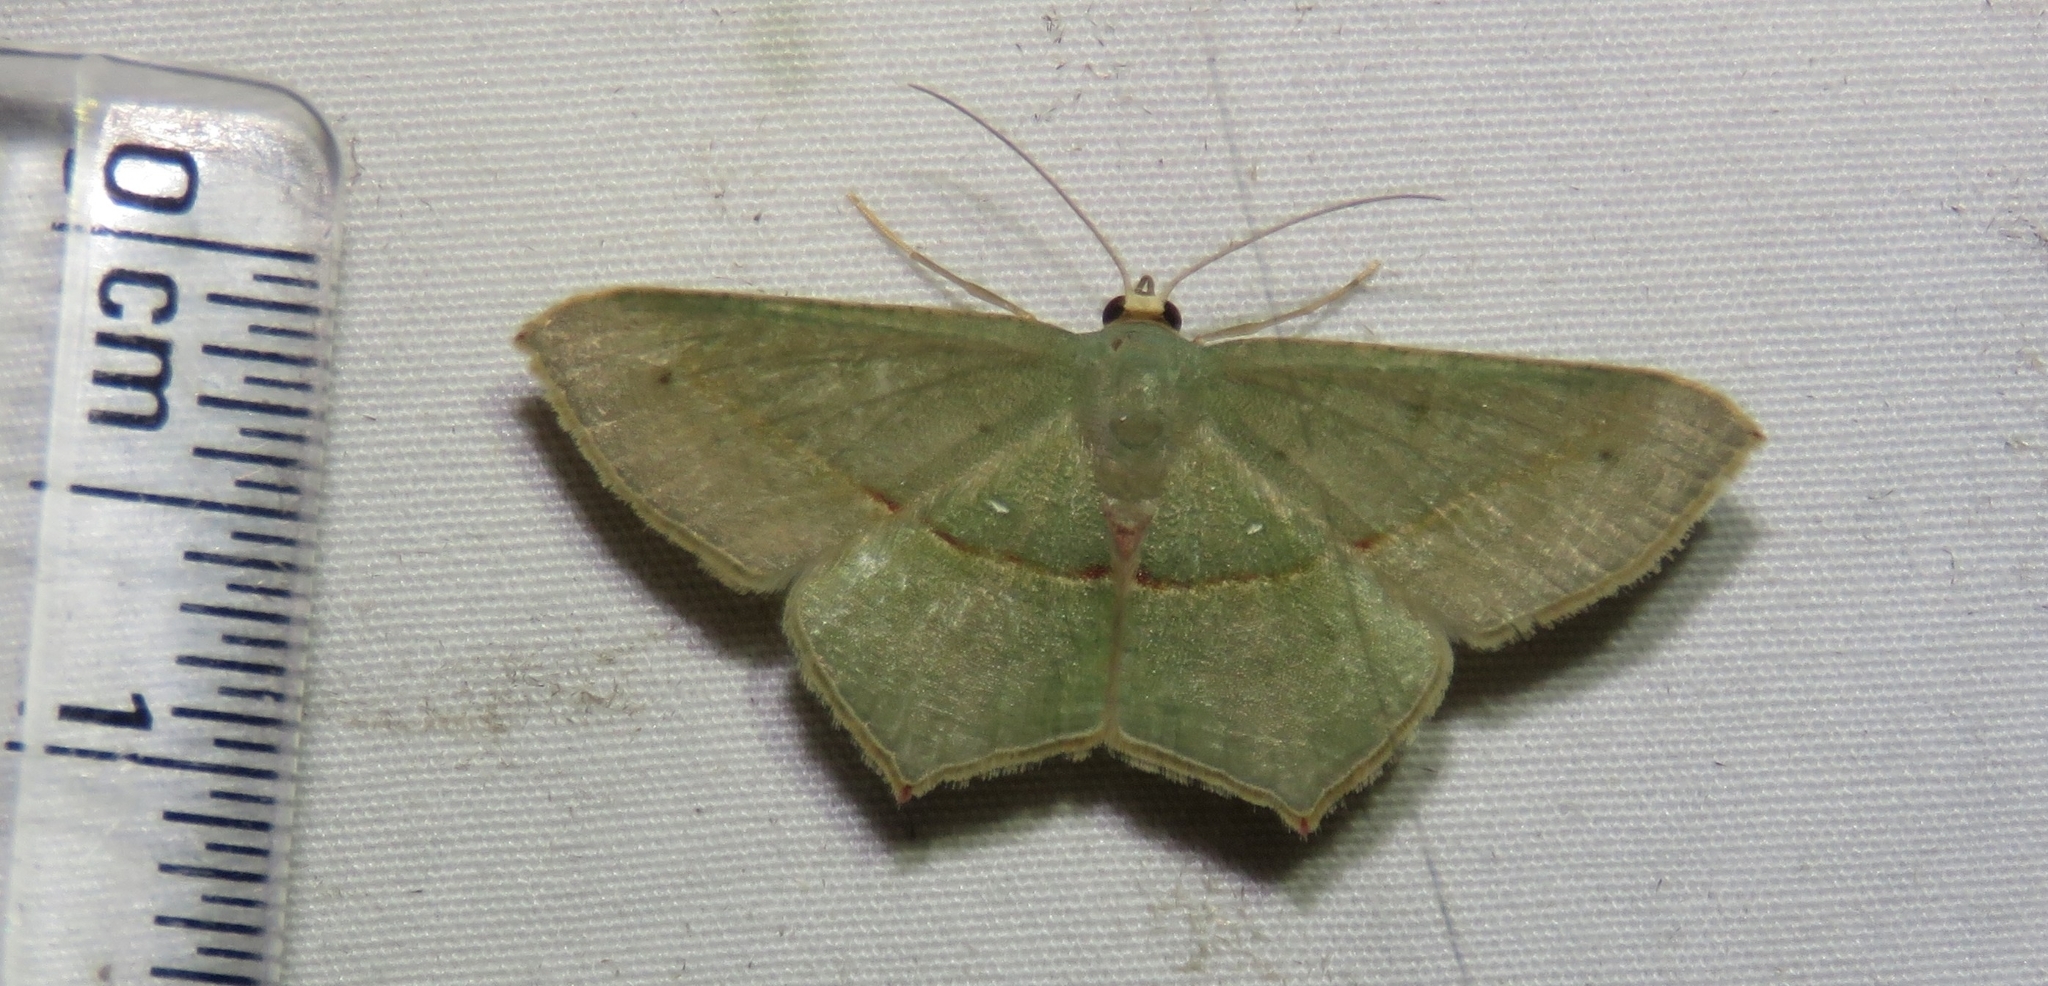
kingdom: Animalia
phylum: Arthropoda
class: Insecta
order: Lepidoptera
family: Geometridae
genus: Traminda
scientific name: Traminda mundissima
